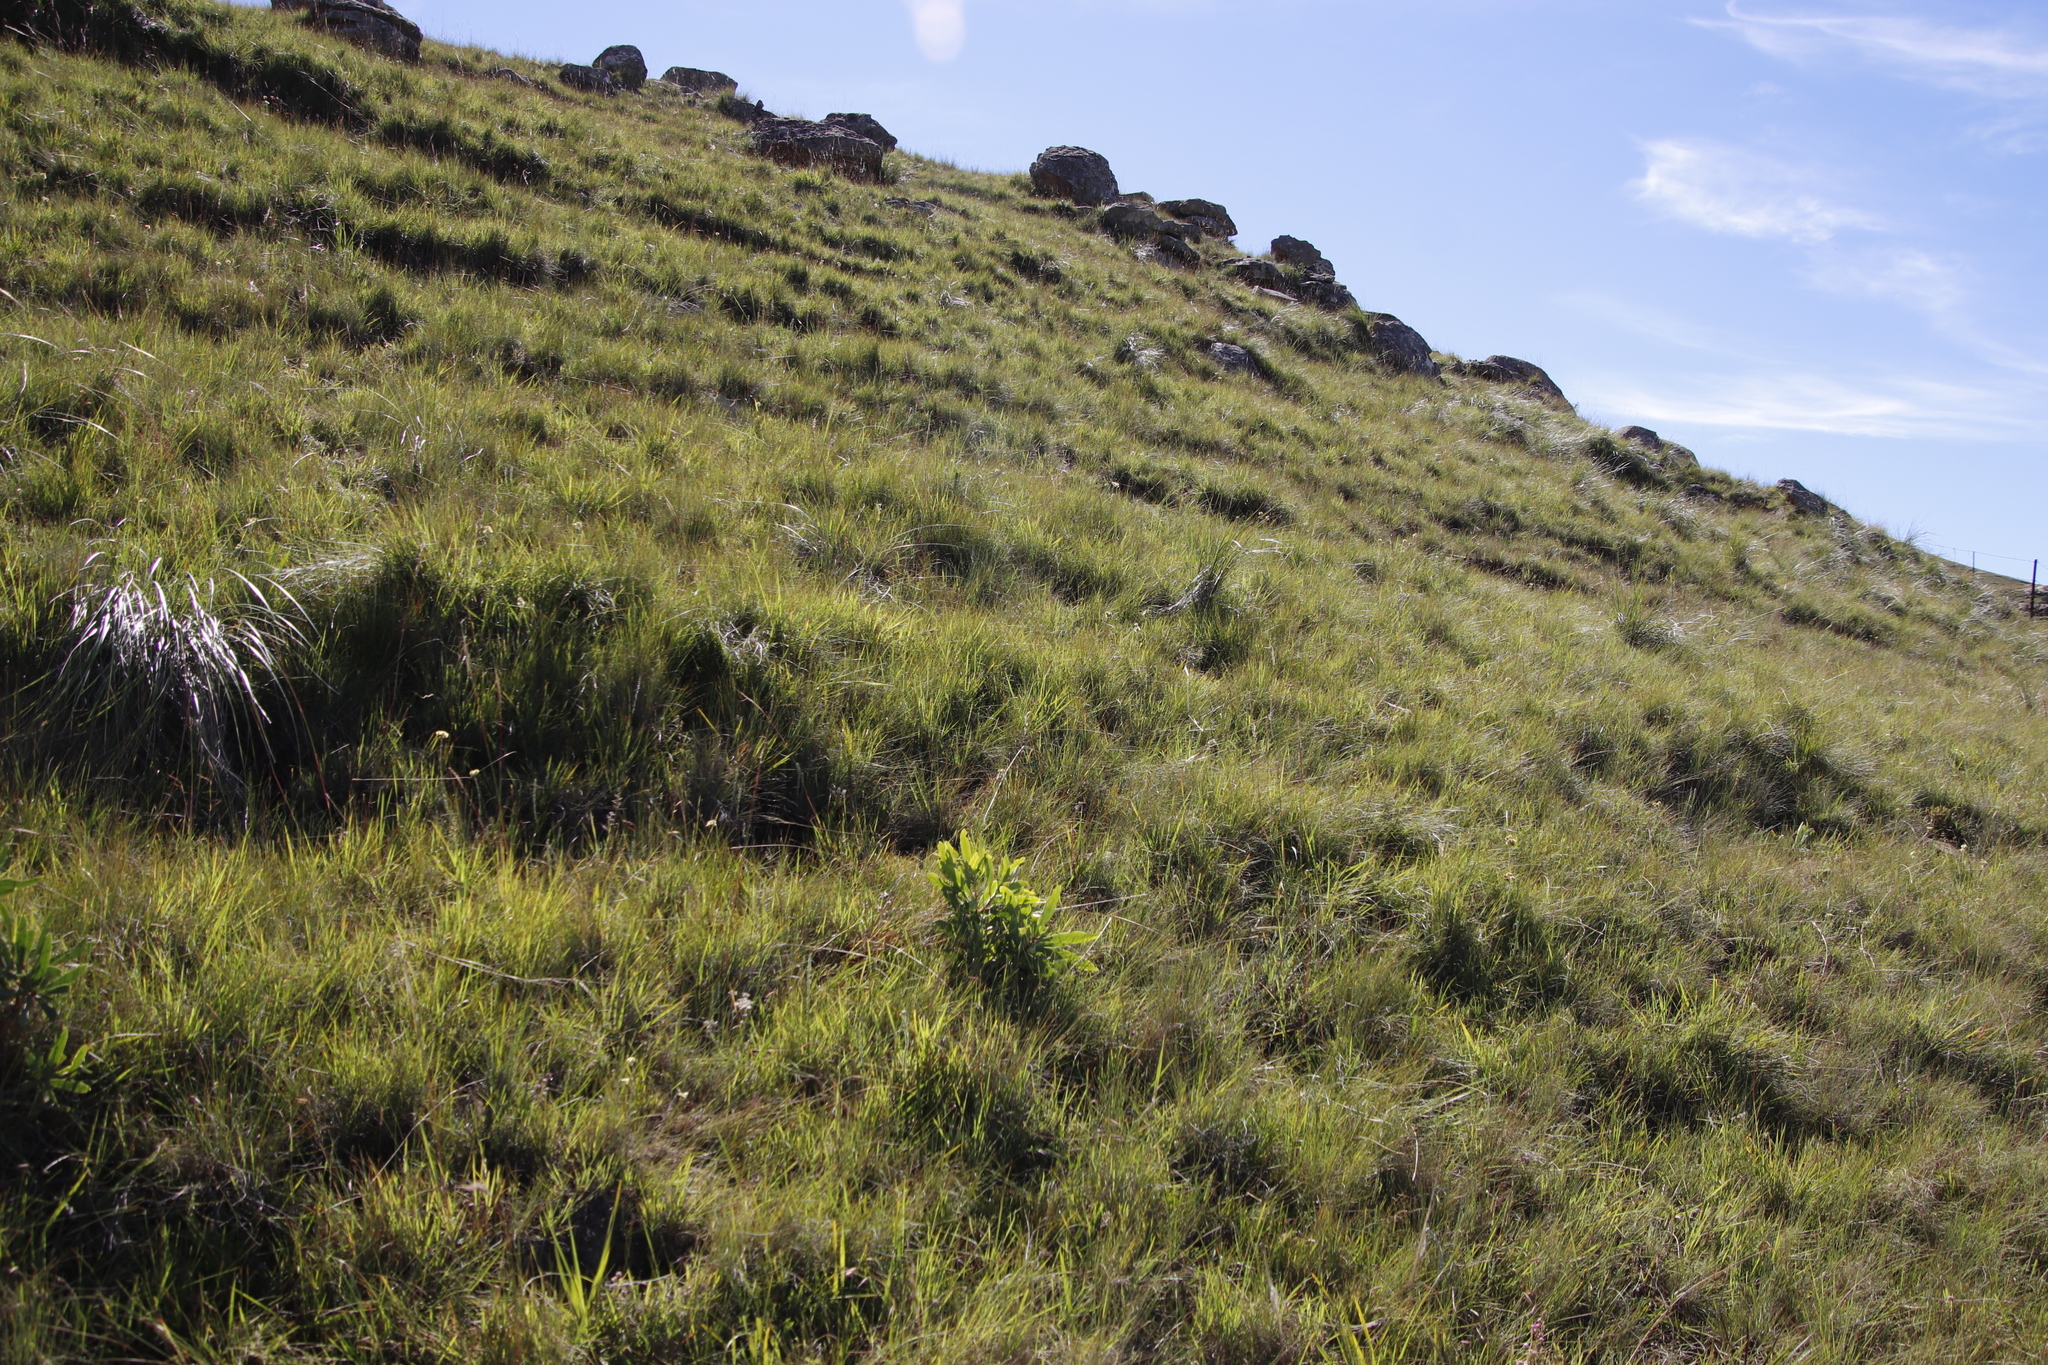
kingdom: Plantae
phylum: Tracheophyta
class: Magnoliopsida
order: Proteales
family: Proteaceae
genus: Protea
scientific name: Protea caffra
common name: Common sugarbush
